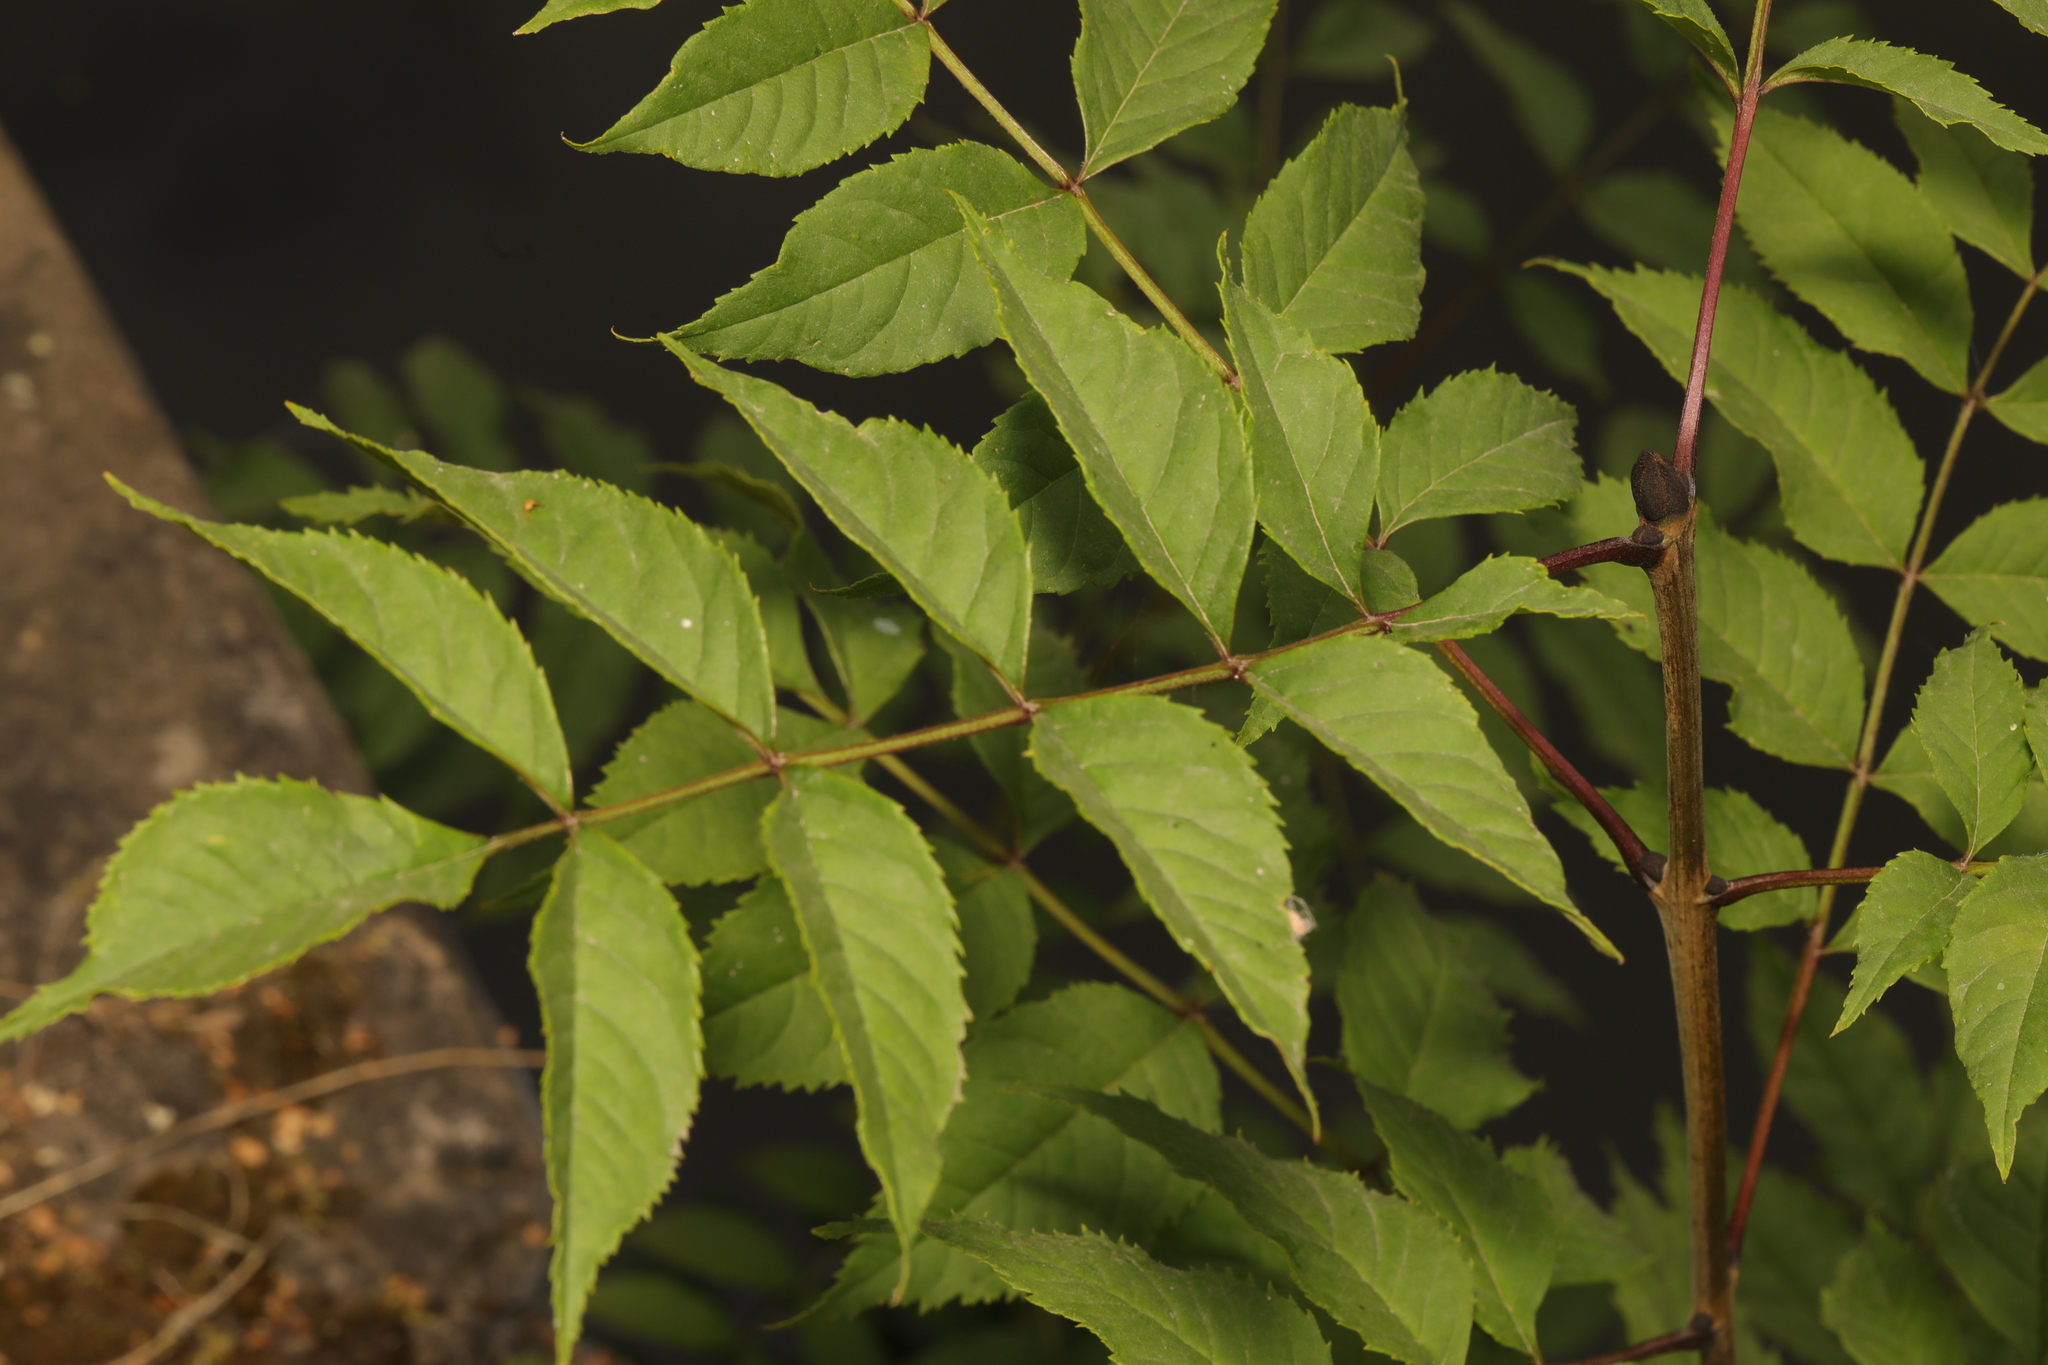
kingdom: Plantae
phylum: Tracheophyta
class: Magnoliopsida
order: Lamiales
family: Oleaceae
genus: Fraxinus
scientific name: Fraxinus excelsior
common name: European ash
